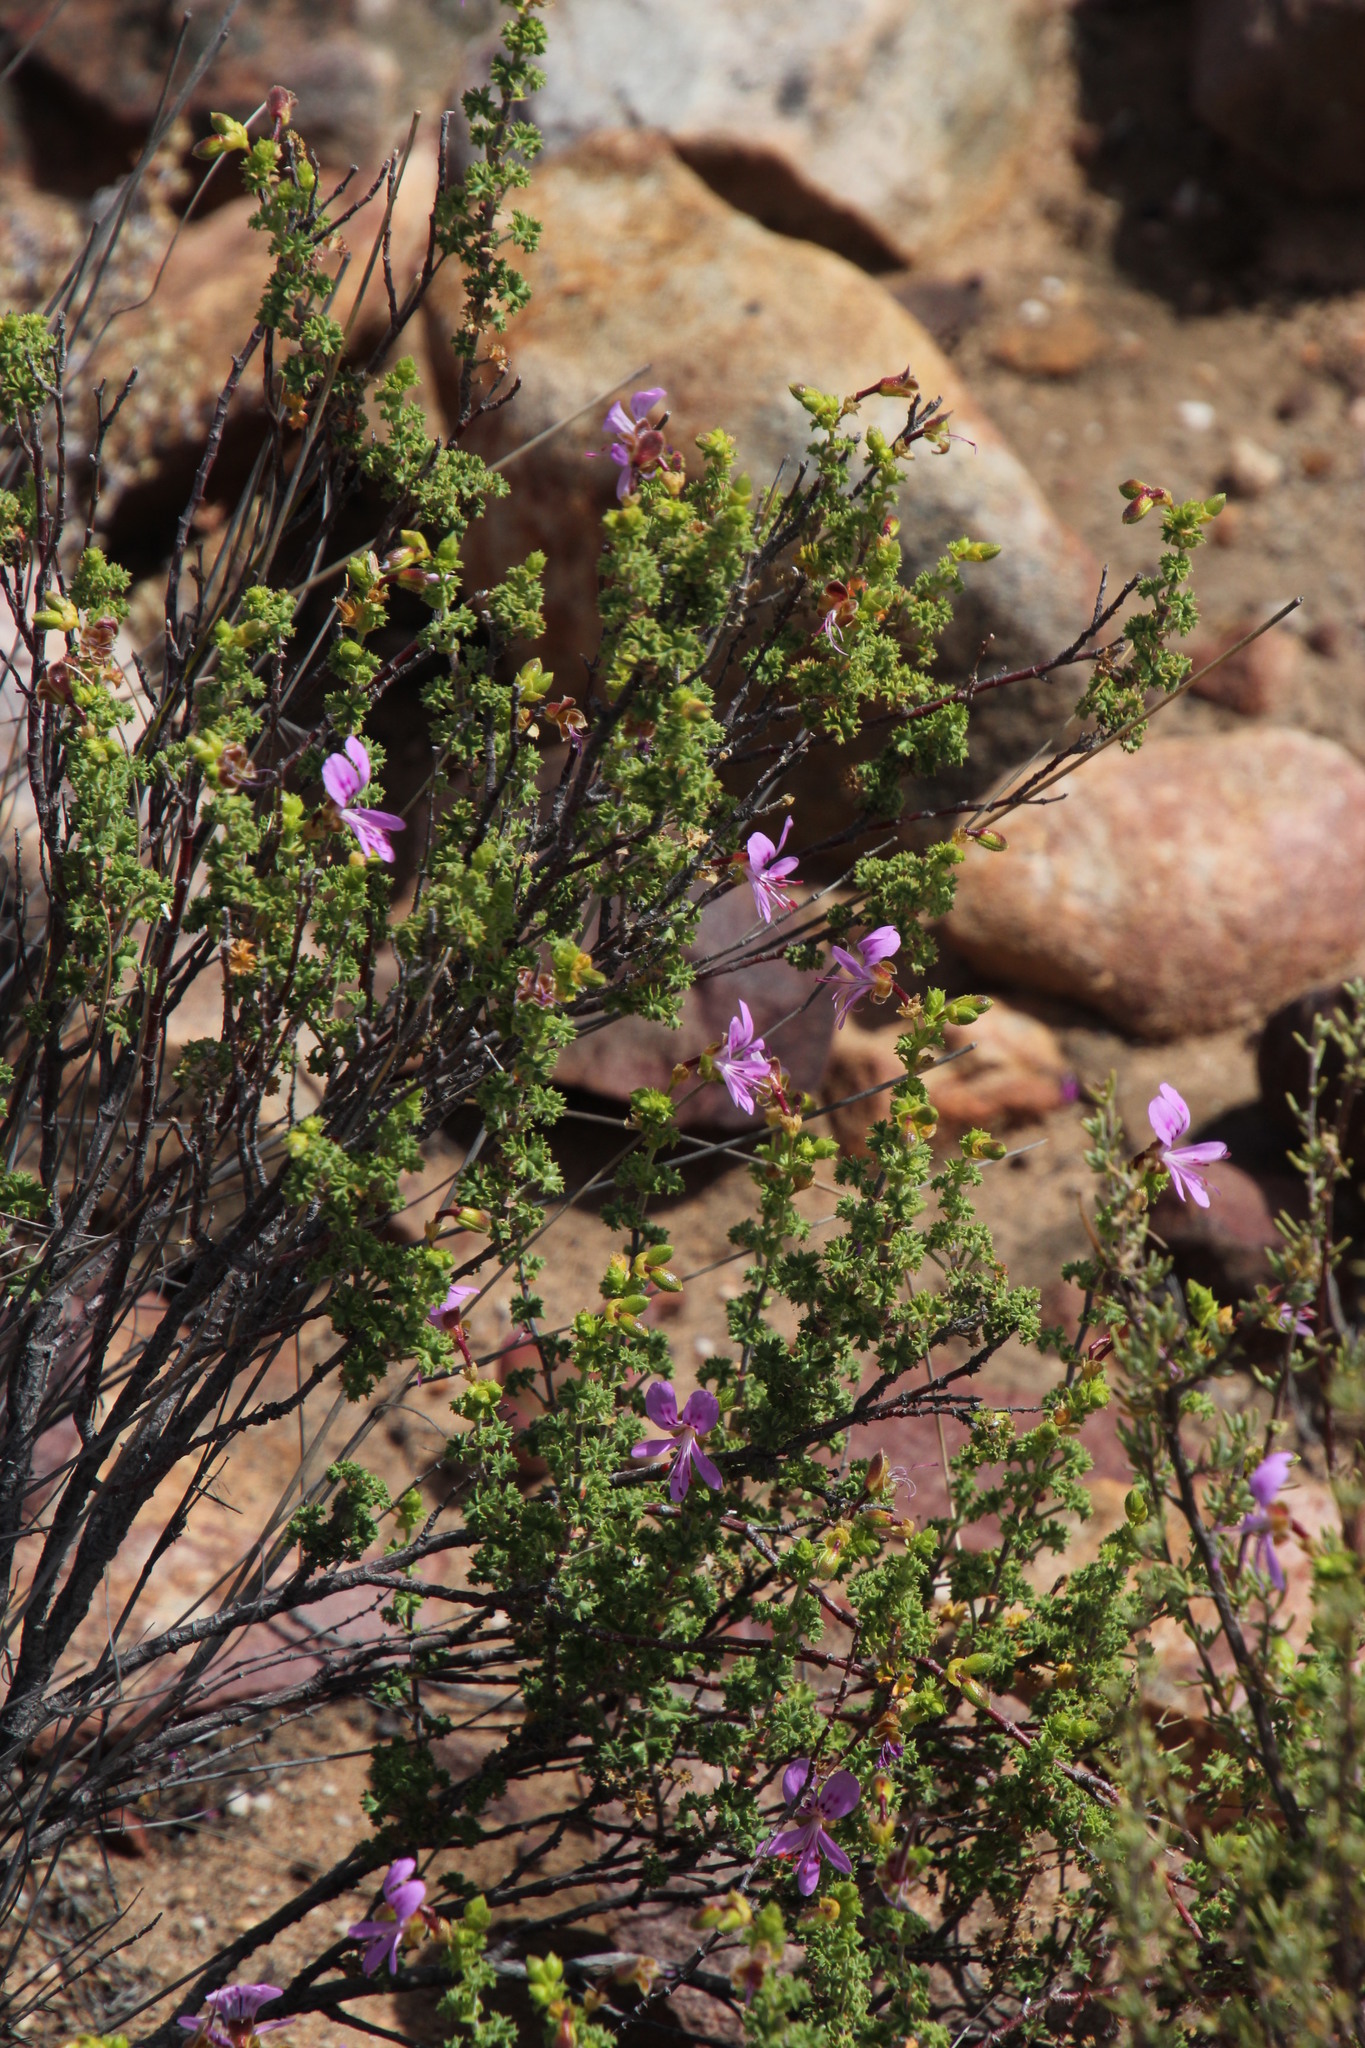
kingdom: Plantae
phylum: Tracheophyta
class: Magnoliopsida
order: Geraniales
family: Geraniaceae
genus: Pelargonium
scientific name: Pelargonium englerianum
